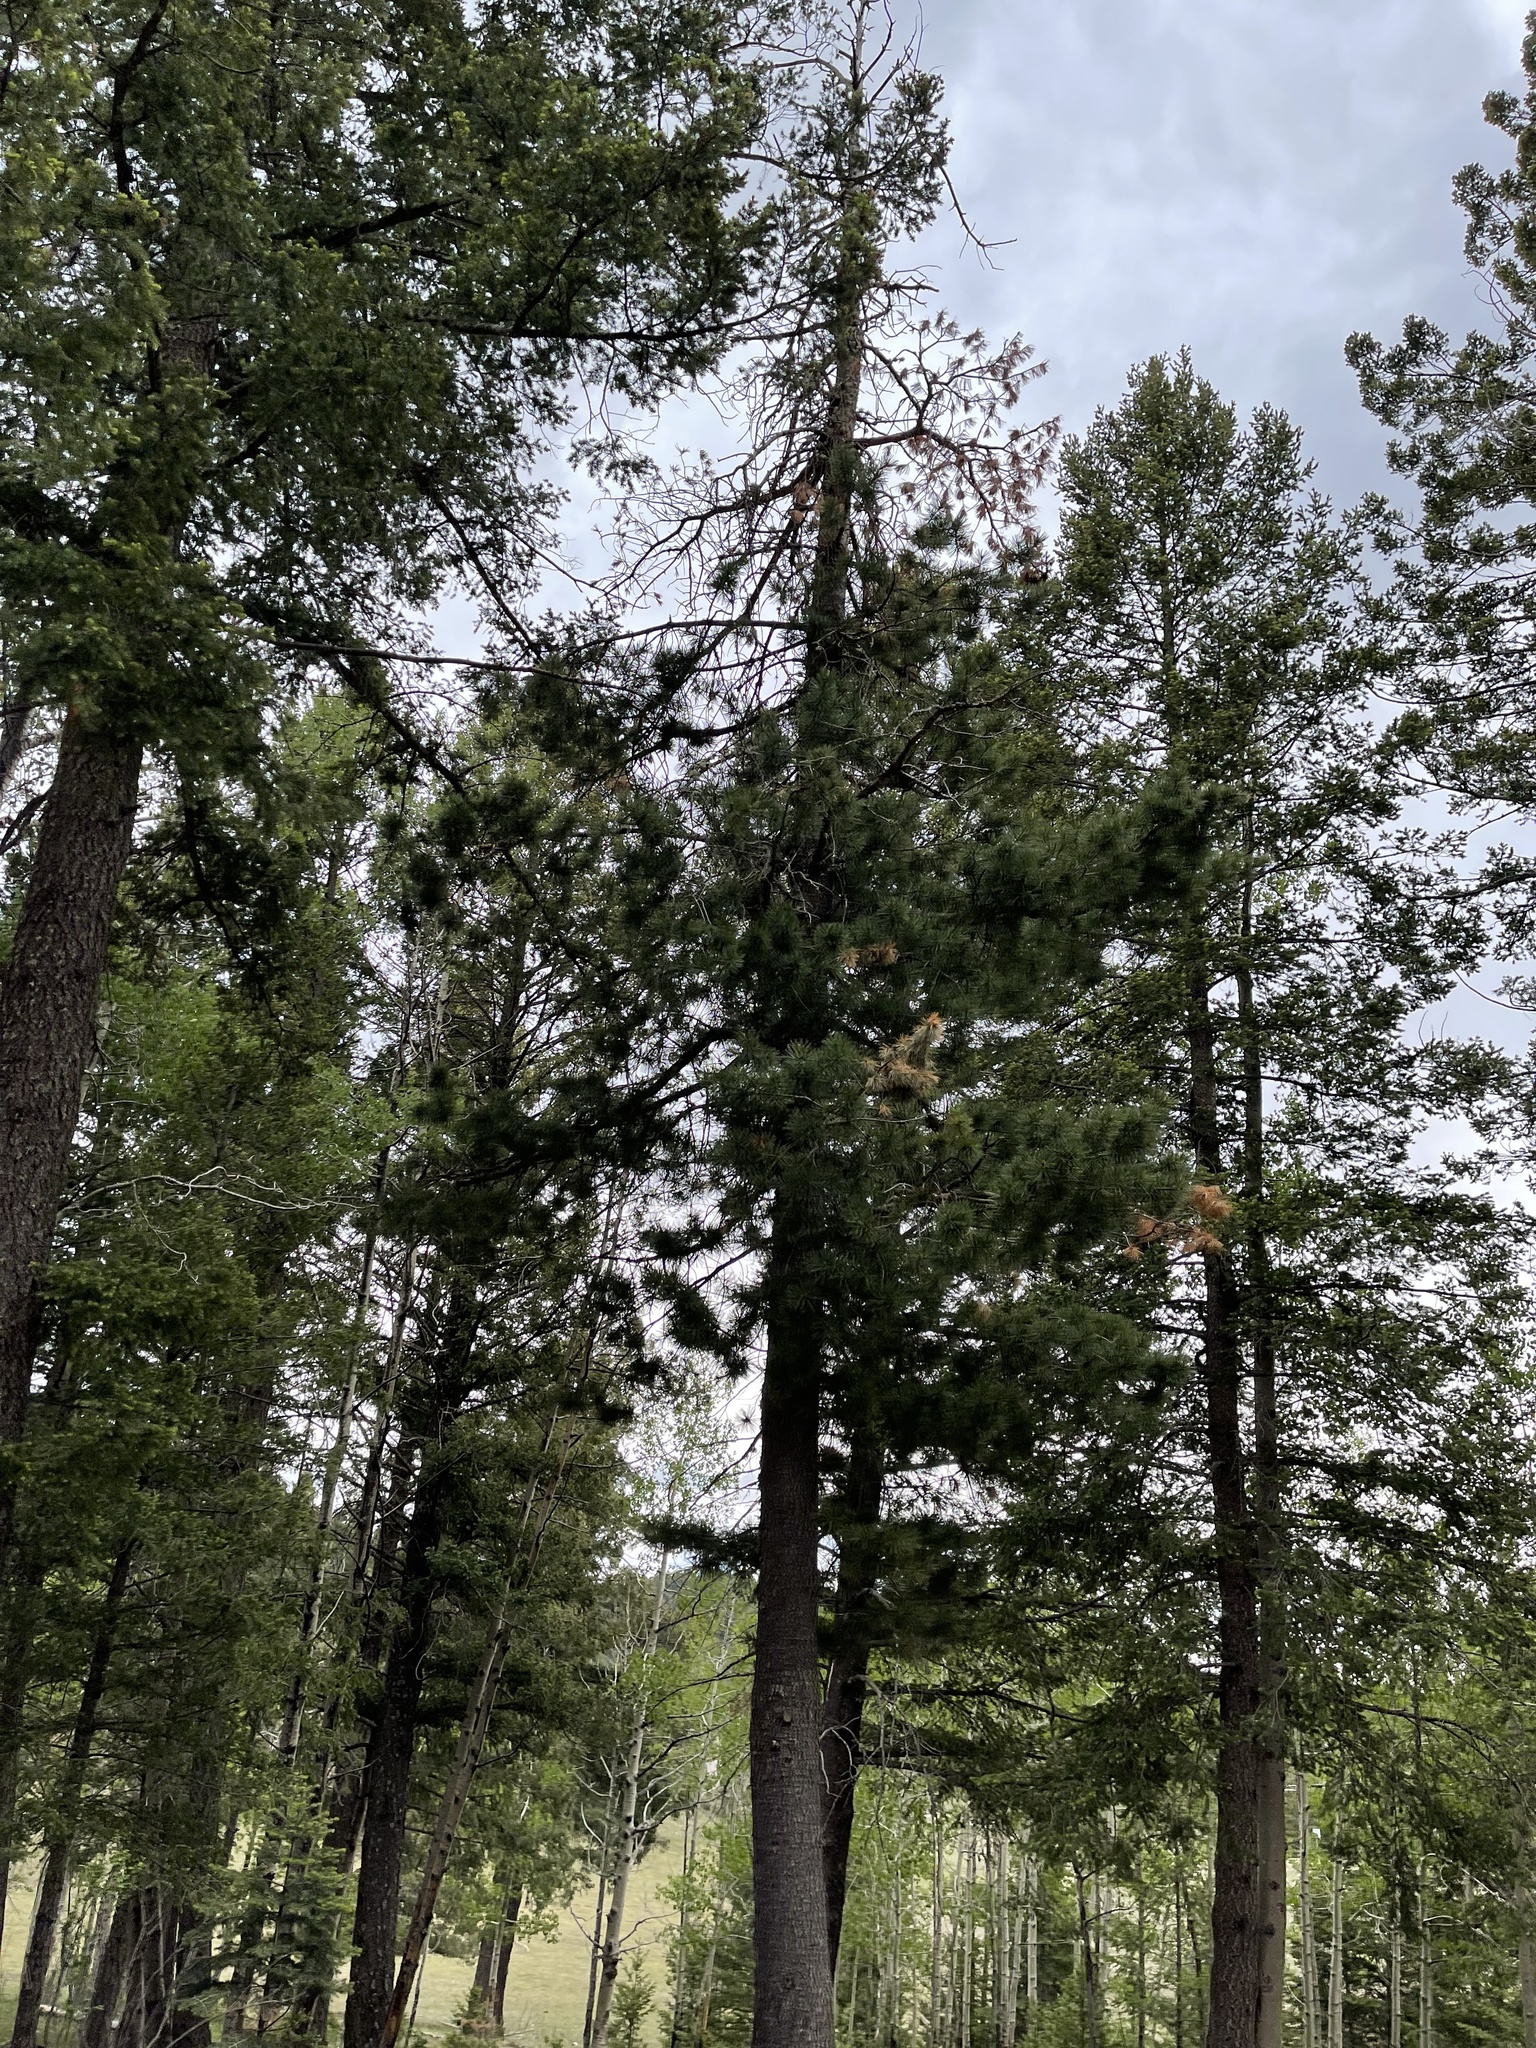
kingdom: Plantae
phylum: Tracheophyta
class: Pinopsida
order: Pinales
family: Pinaceae
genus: Pinus
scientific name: Pinus strobiformis
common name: Southwestern white pine
